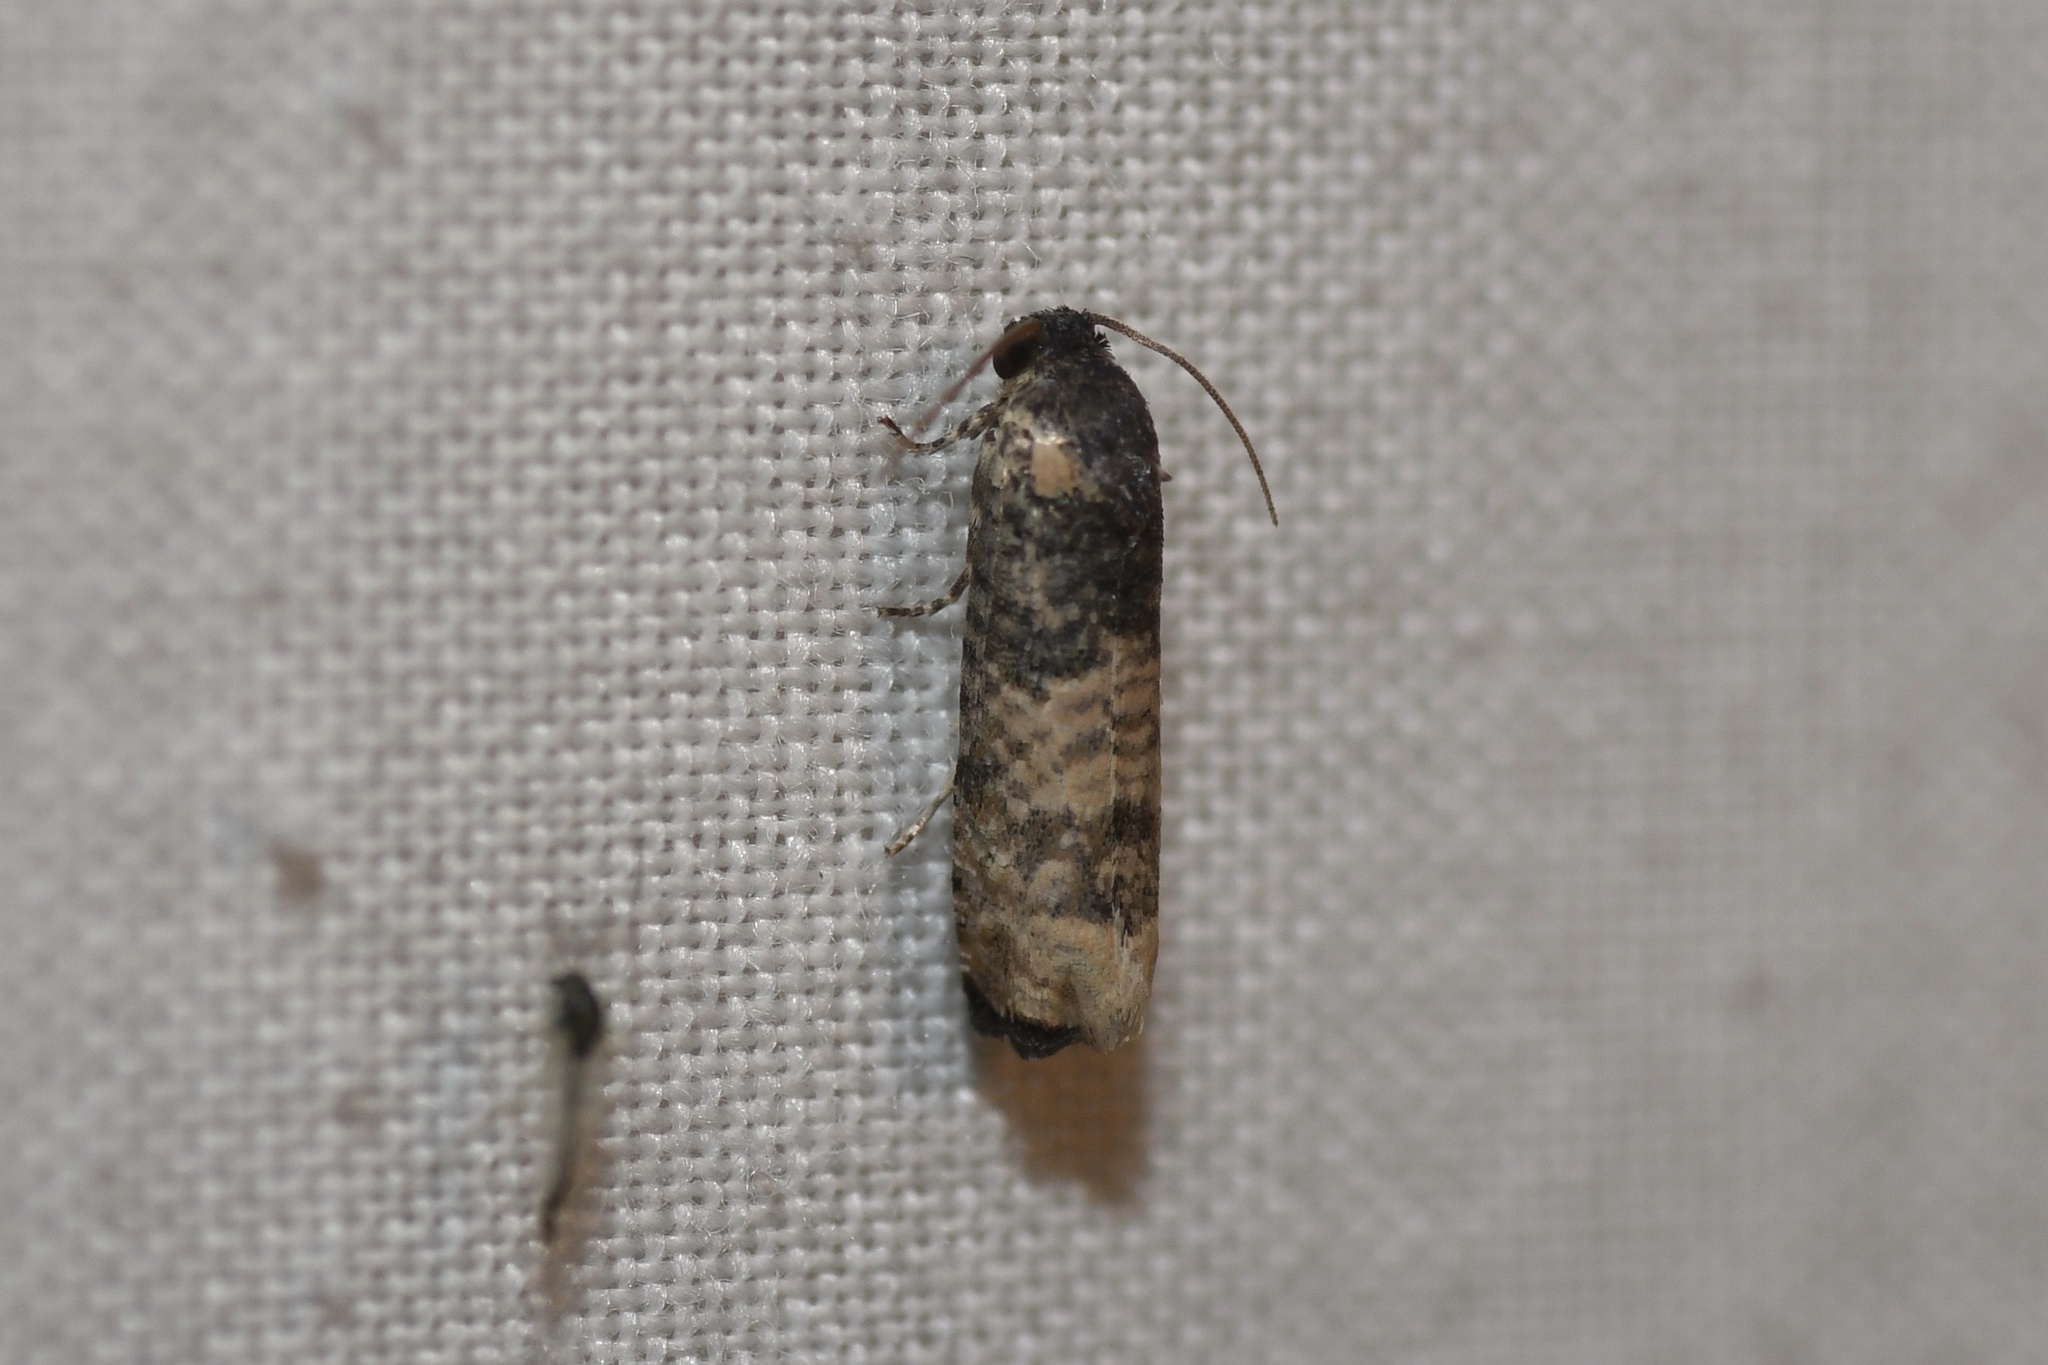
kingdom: Animalia
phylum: Arthropoda
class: Insecta
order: Lepidoptera
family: Tortricidae
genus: Epiblema
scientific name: Epiblema obfuscana
